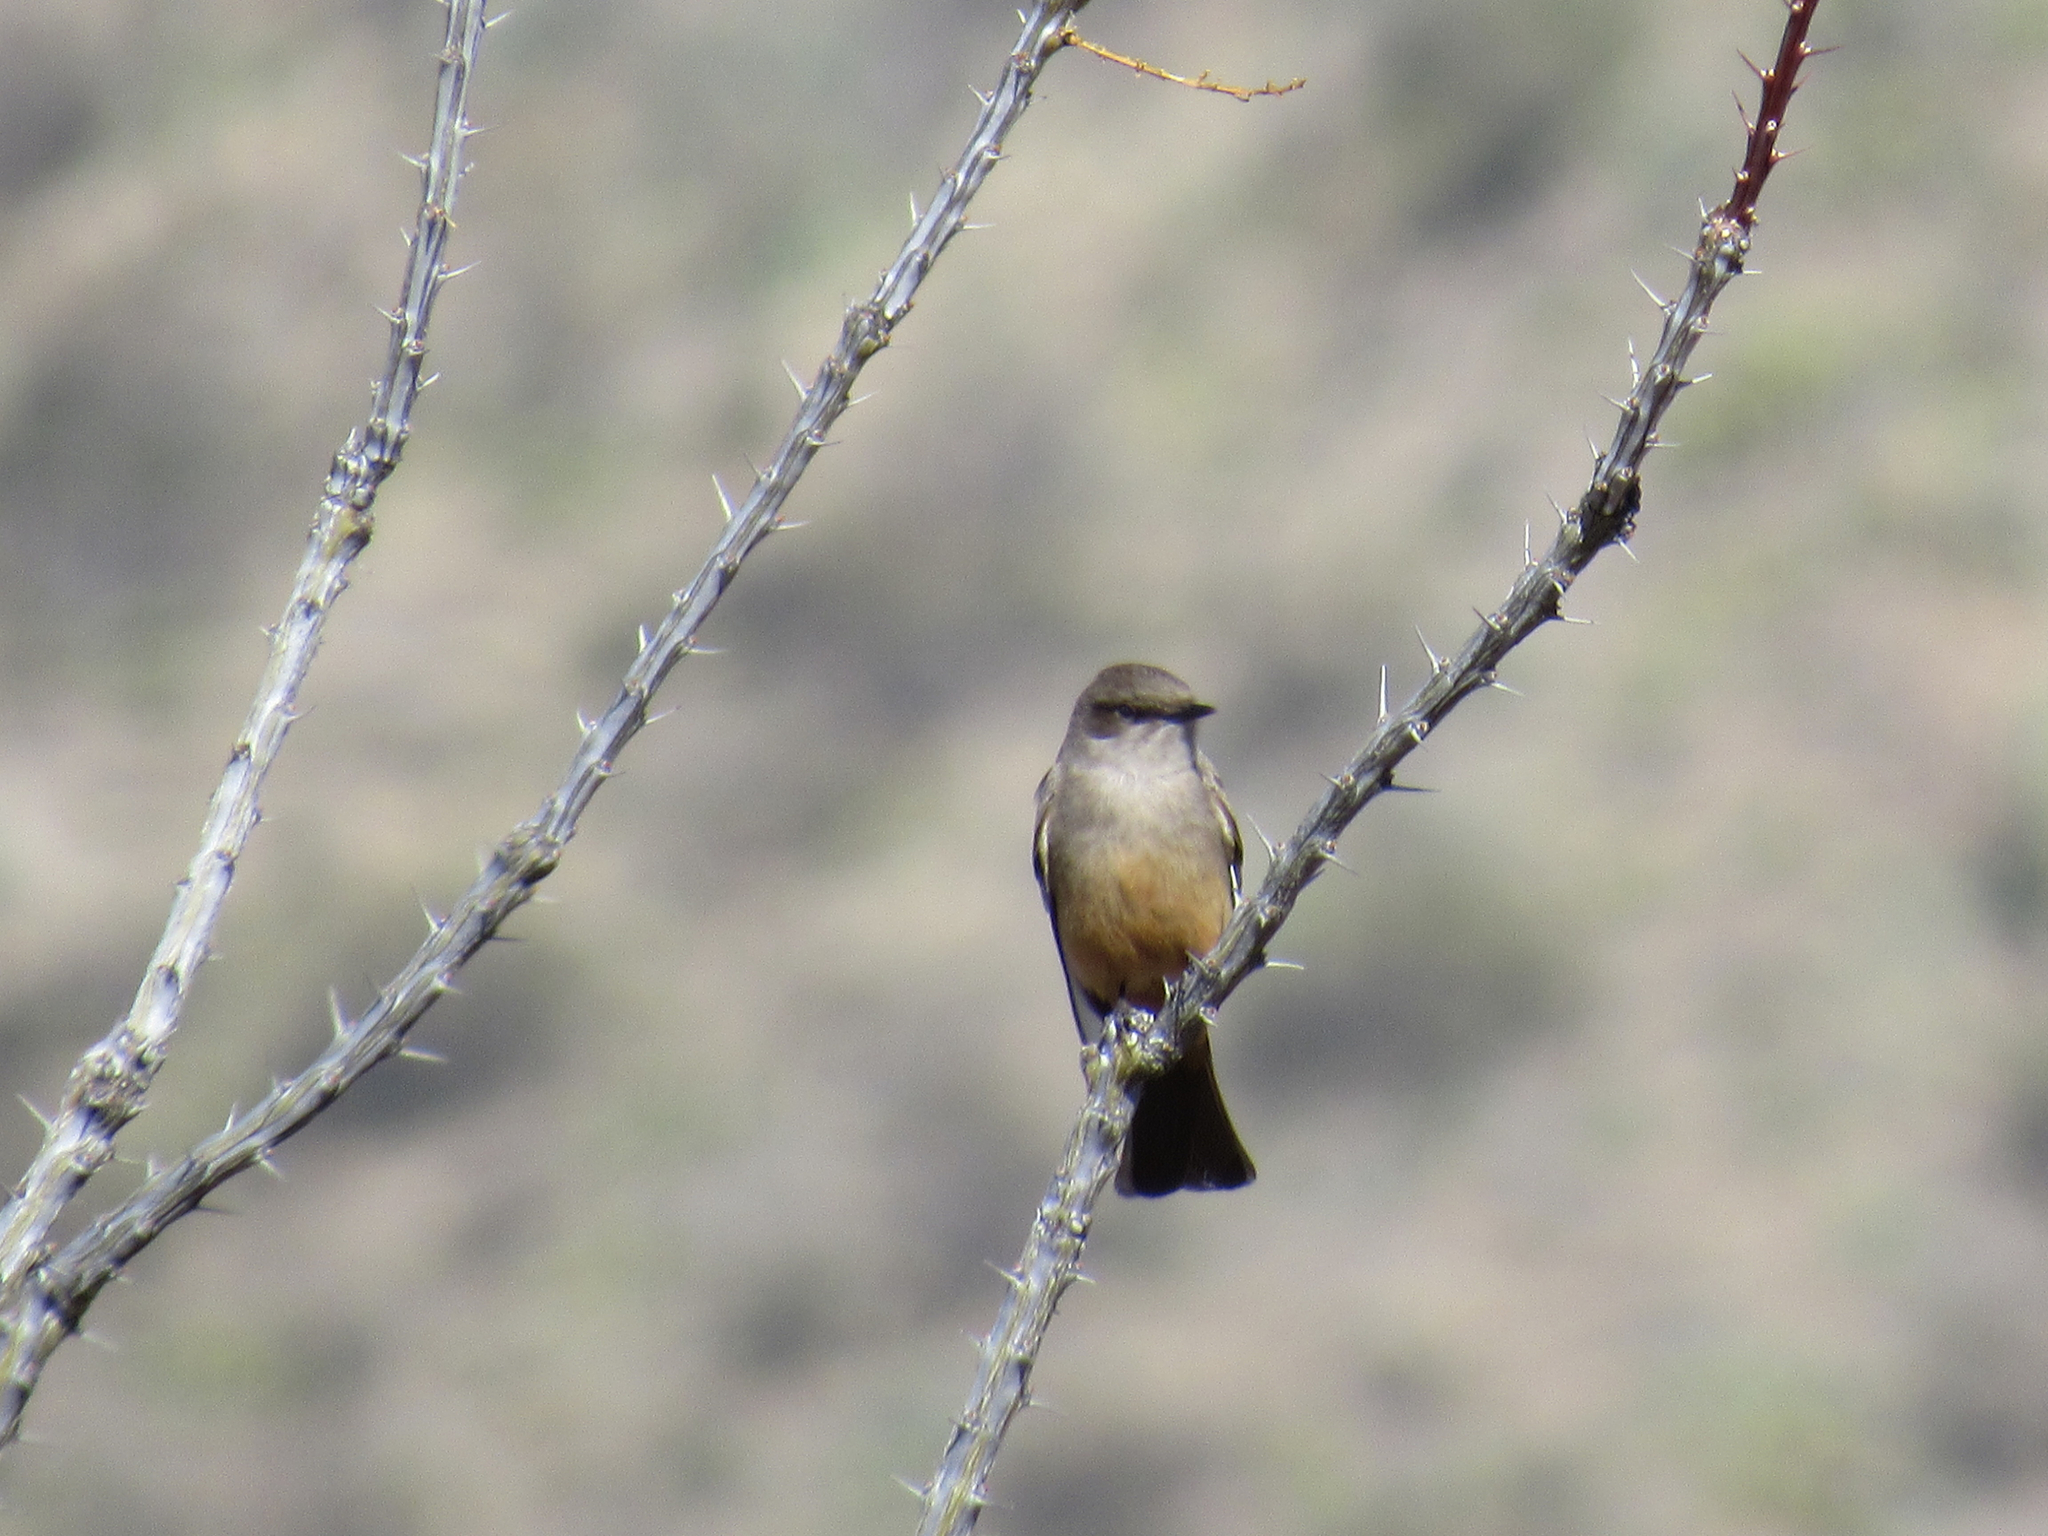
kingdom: Animalia
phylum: Chordata
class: Aves
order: Passeriformes
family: Tyrannidae
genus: Sayornis
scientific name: Sayornis saya
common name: Say's phoebe
